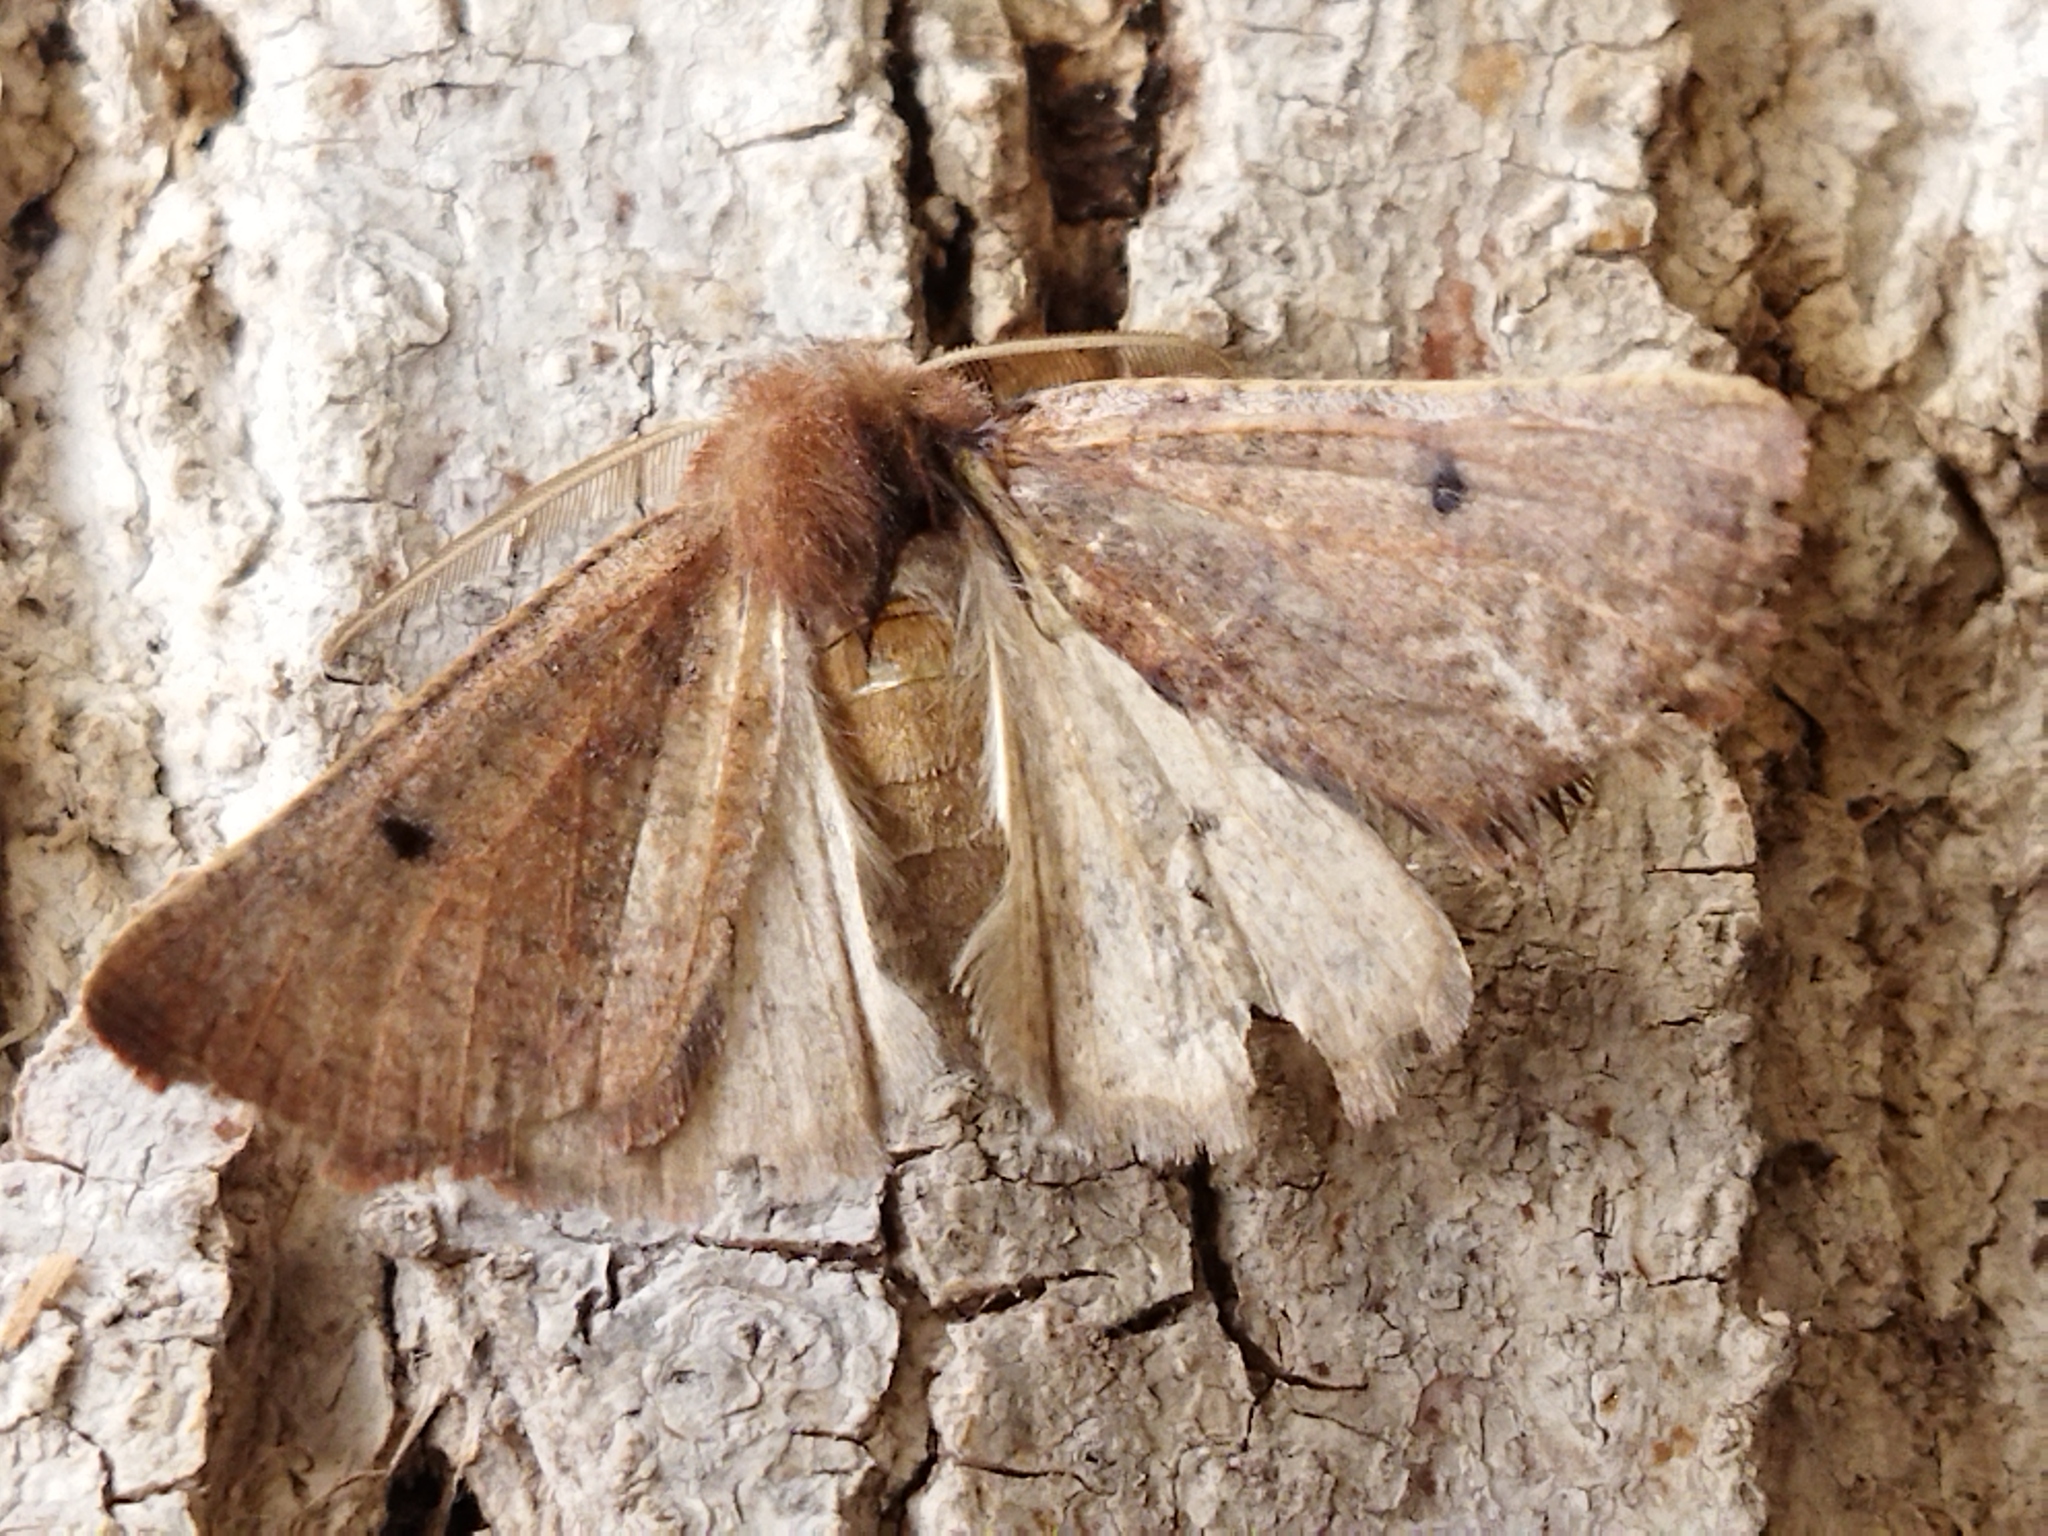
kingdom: Animalia
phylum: Arthropoda
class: Insecta
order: Lepidoptera
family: Geometridae
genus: Dasycorsa
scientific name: Dasycorsa modesta
